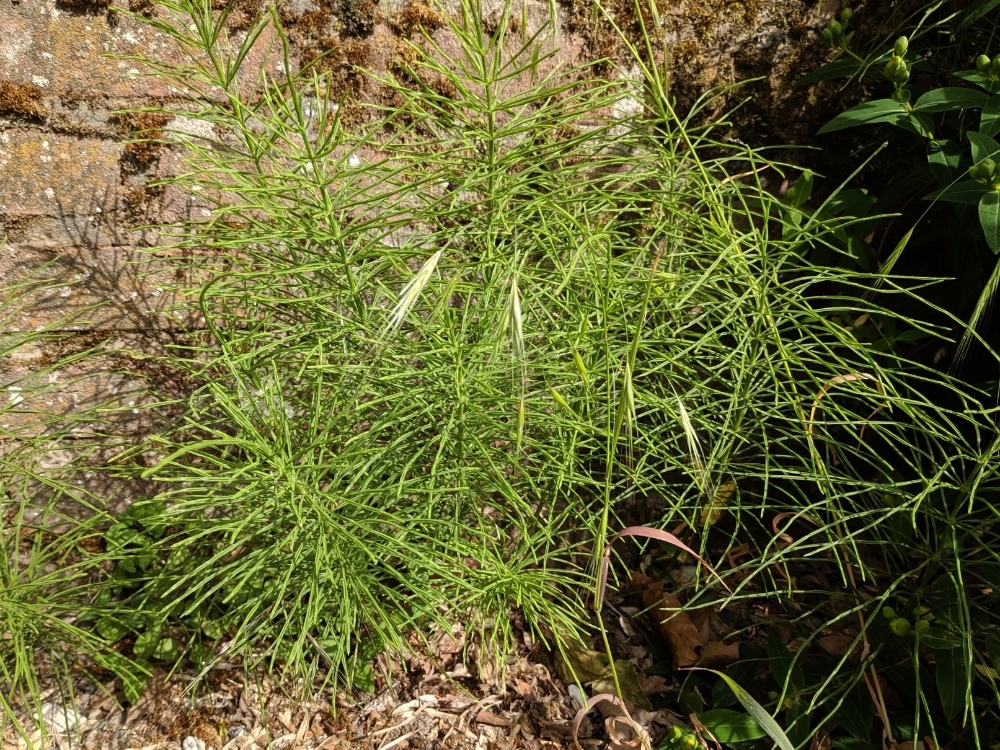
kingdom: Plantae
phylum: Tracheophyta
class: Polypodiopsida
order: Equisetales
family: Equisetaceae
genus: Equisetum
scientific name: Equisetum arvense
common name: Field horsetail
